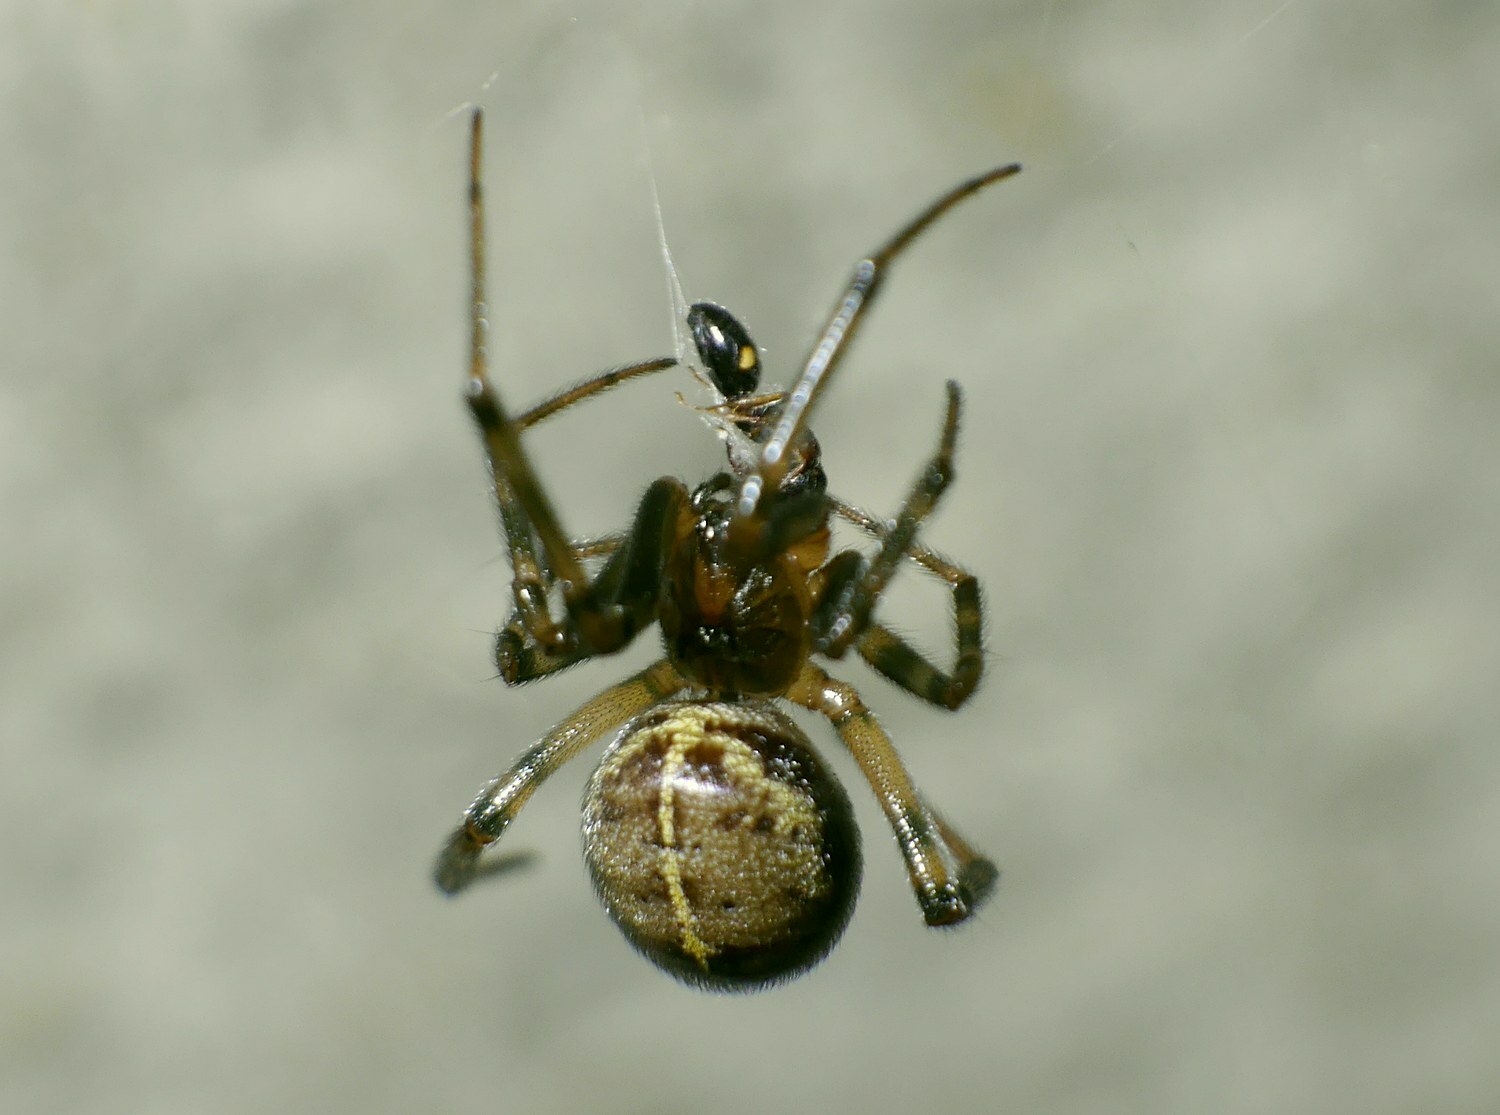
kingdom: Animalia
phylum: Arthropoda
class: Arachnida
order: Araneae
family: Theridiidae
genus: Steatoda
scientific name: Steatoda castanea
